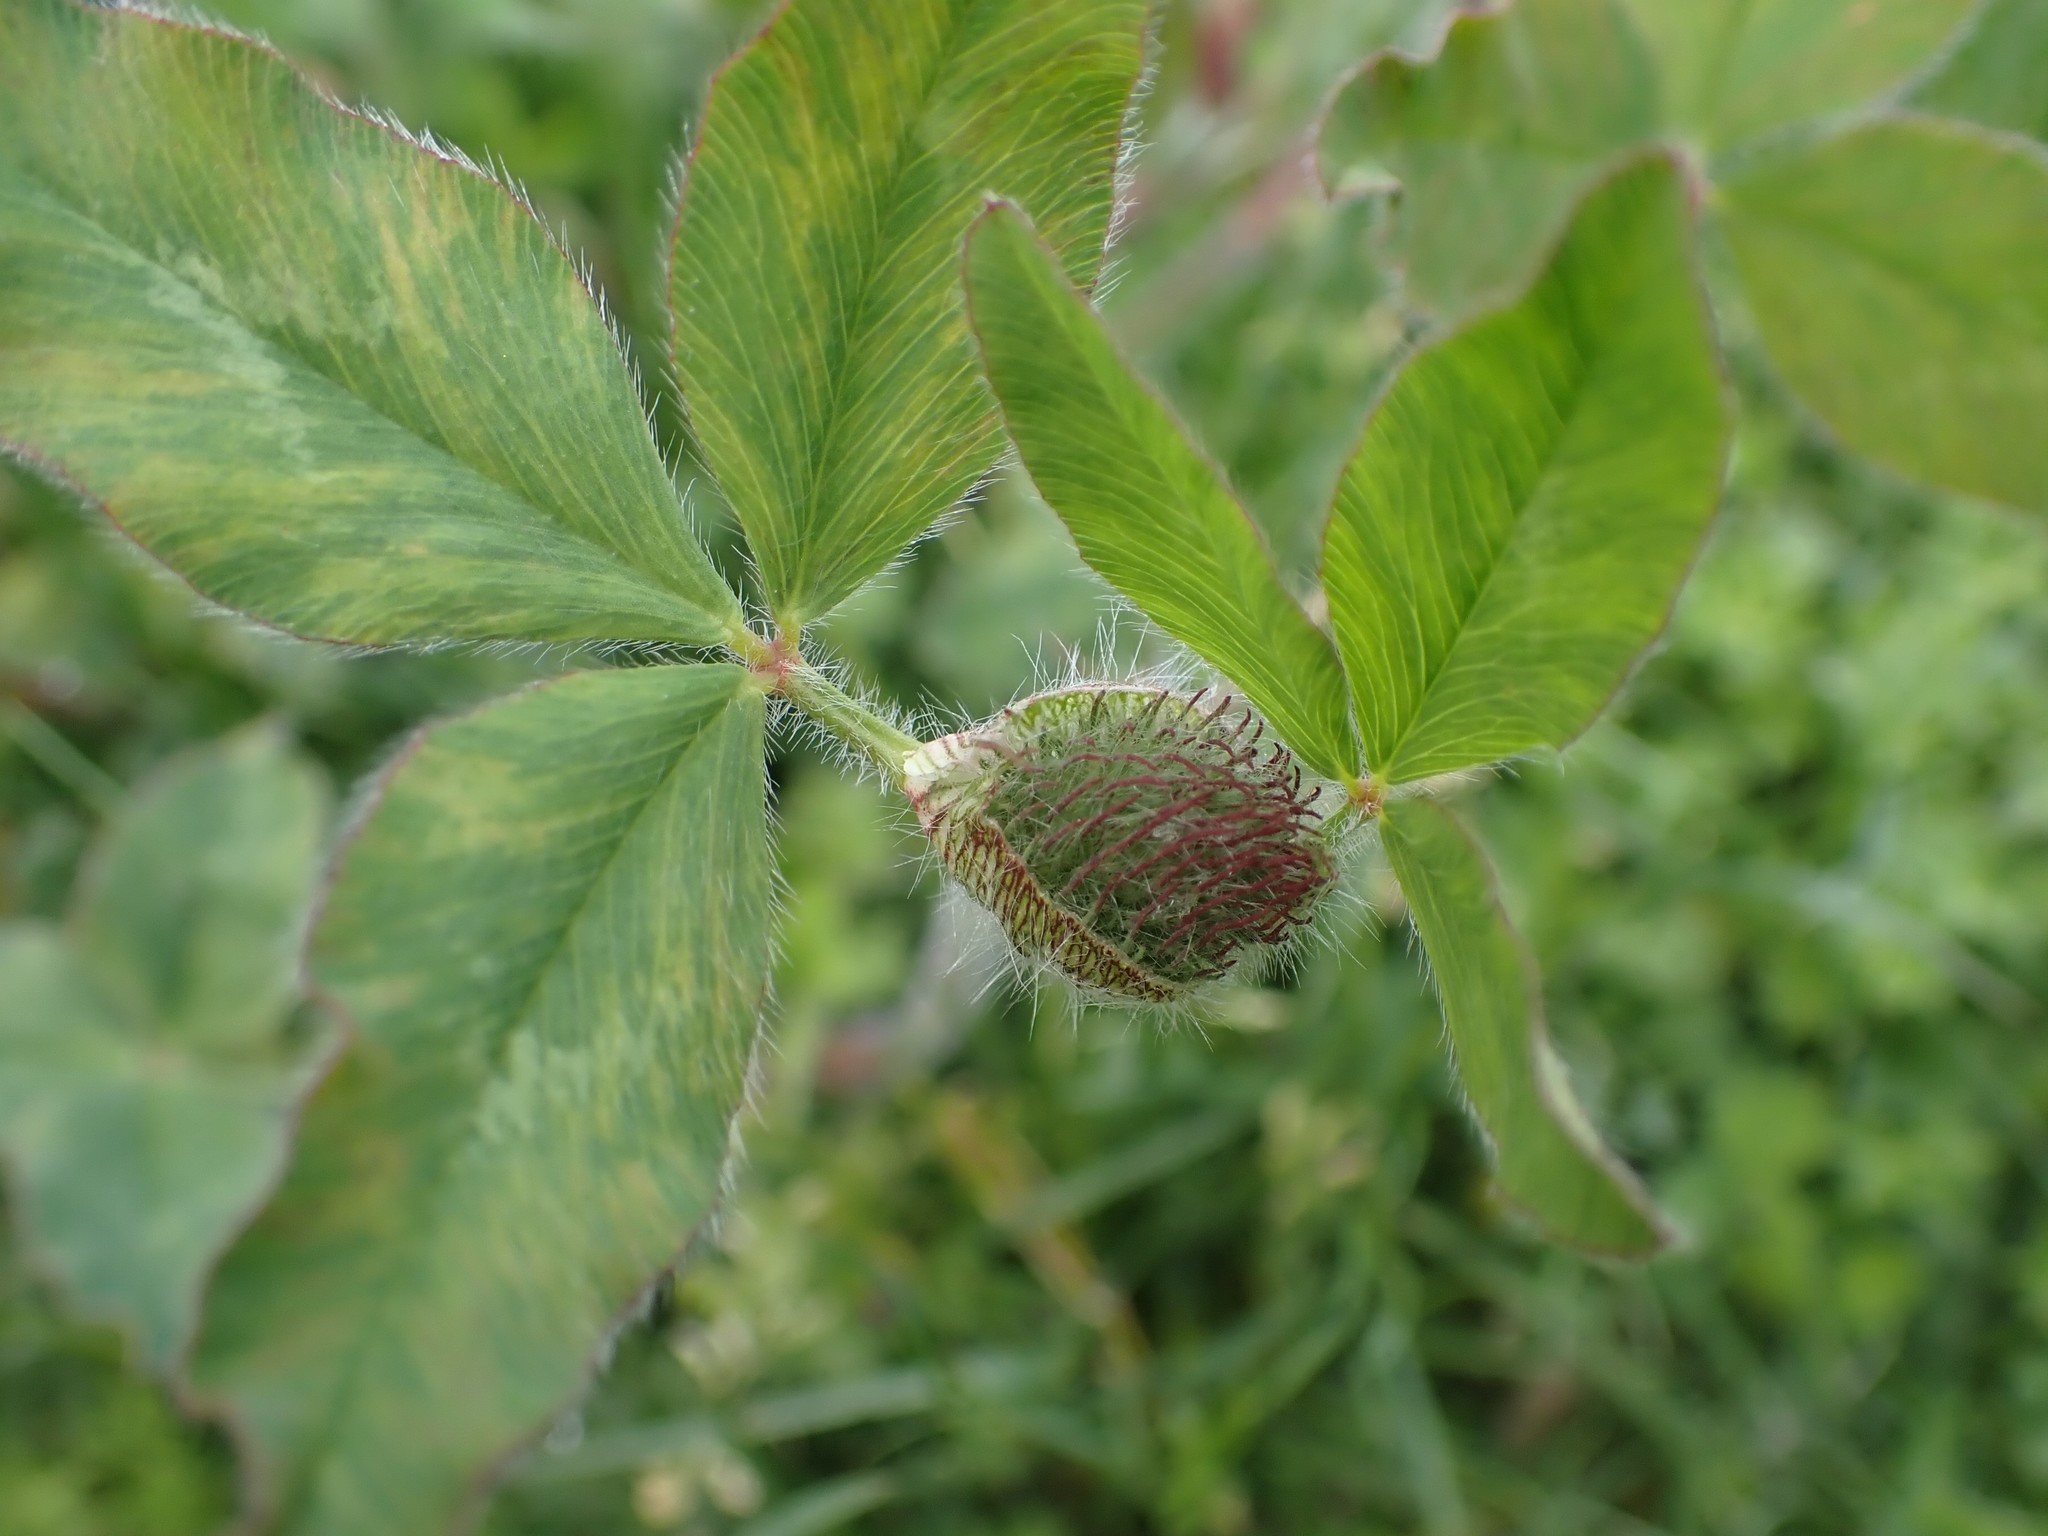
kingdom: Plantae
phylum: Tracheophyta
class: Magnoliopsida
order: Fabales
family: Fabaceae
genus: Trifolium
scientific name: Trifolium pratense
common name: Red clover
